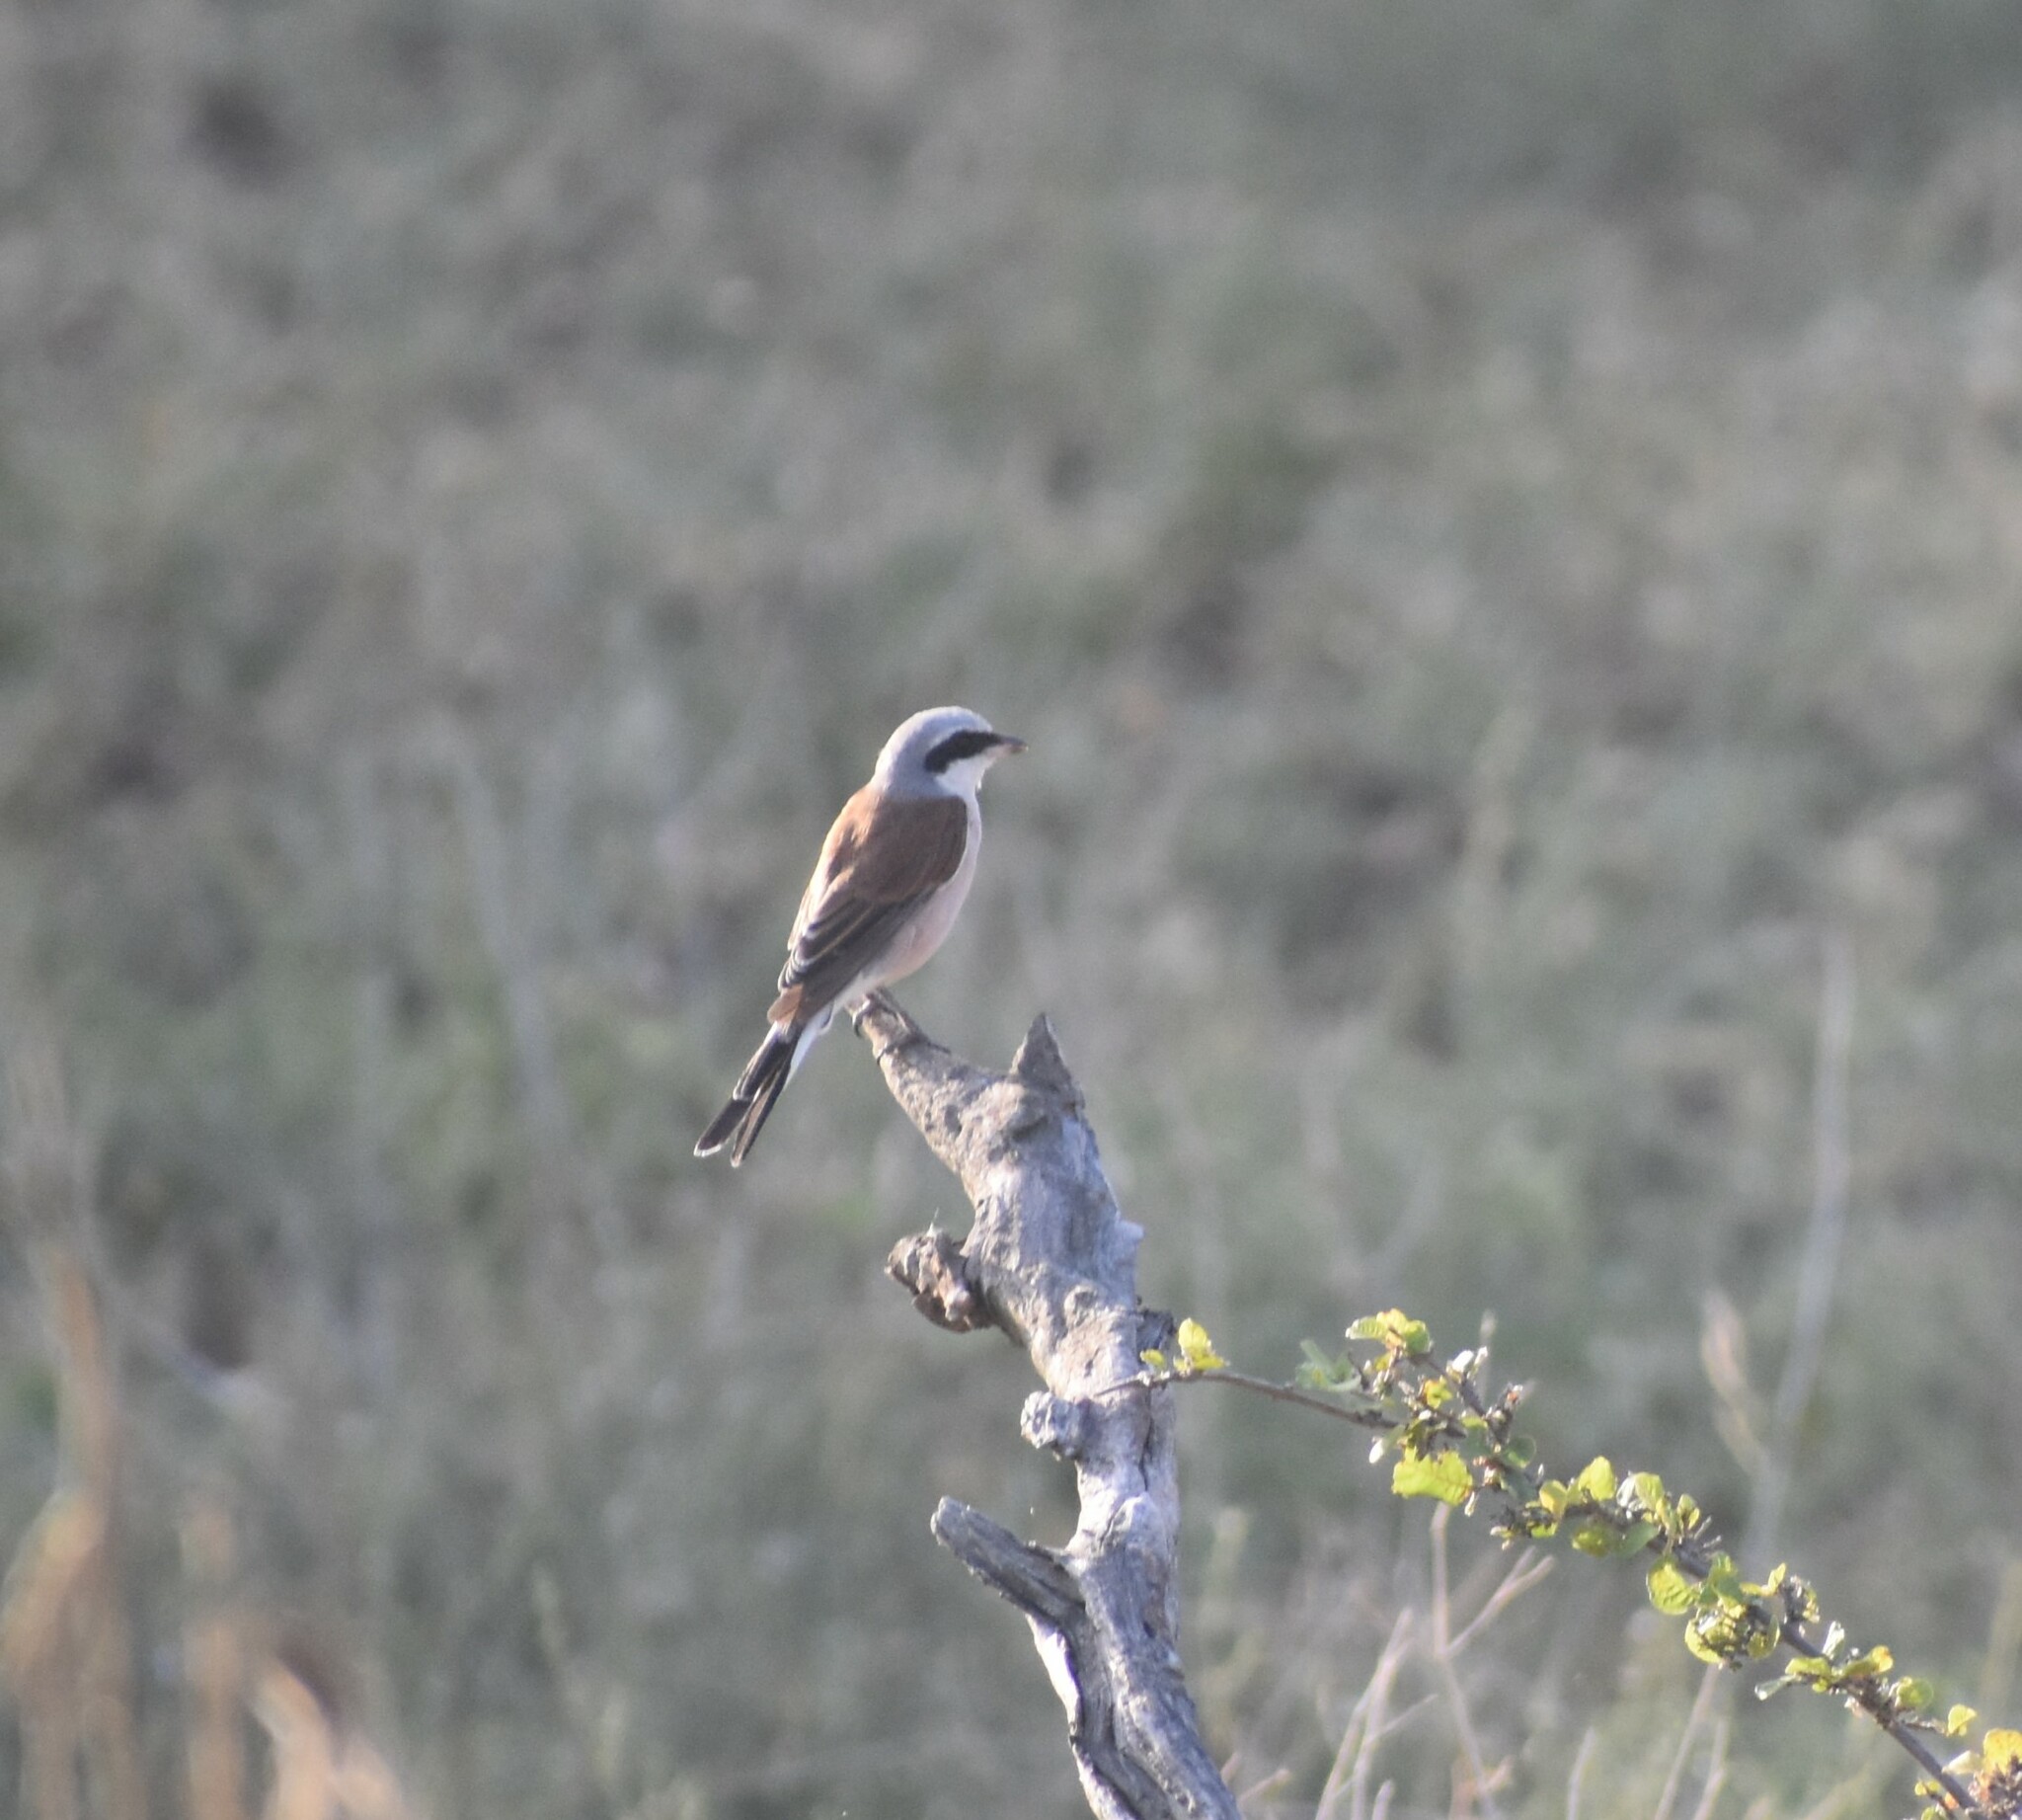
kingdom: Animalia
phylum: Chordata
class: Aves
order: Passeriformes
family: Laniidae
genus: Lanius
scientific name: Lanius collurio
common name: Red-backed shrike
